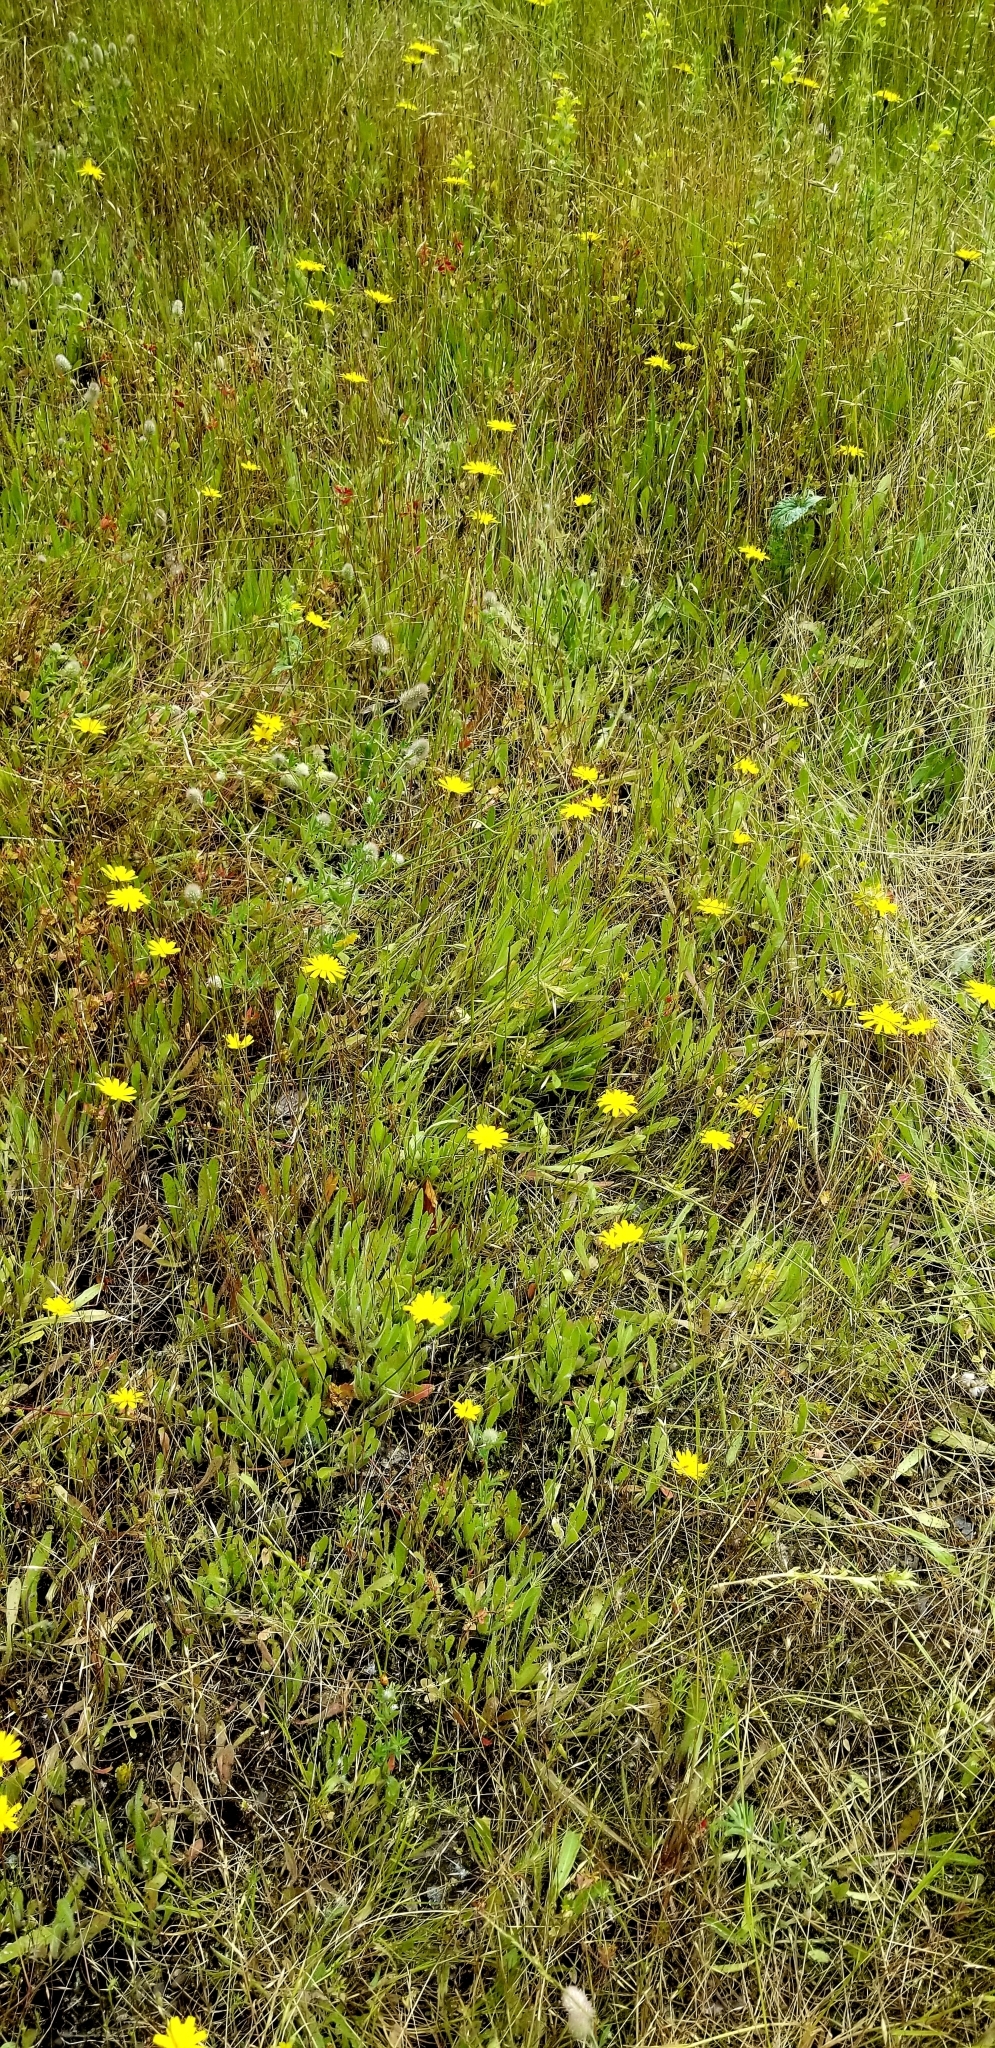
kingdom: Plantae
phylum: Tracheophyta
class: Magnoliopsida
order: Asterales
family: Asteraceae
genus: Hypochaeris
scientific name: Hypochaeris radicata
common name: Flatweed
